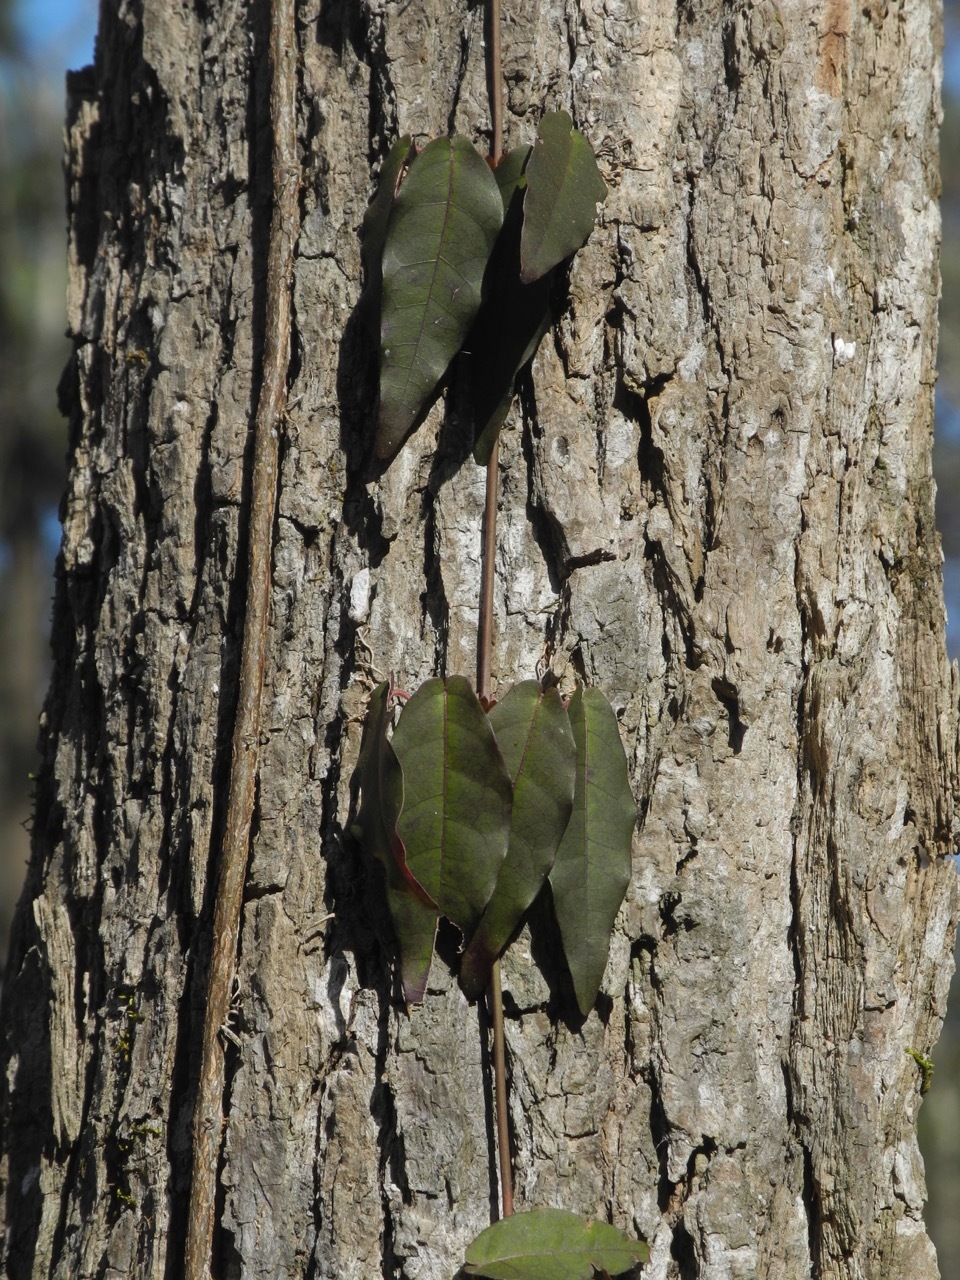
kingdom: Plantae
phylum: Tracheophyta
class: Magnoliopsida
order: Lamiales
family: Bignoniaceae
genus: Bignonia
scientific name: Bignonia capreolata
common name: Crossvine
